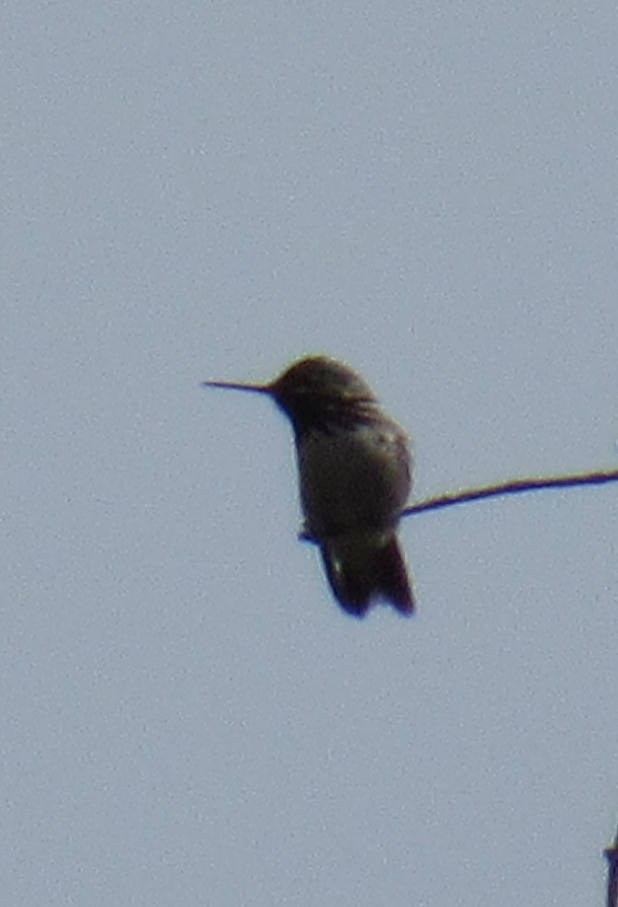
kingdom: Animalia
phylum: Chordata
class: Aves
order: Apodiformes
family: Trochilidae
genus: Selasphorus
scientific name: Selasphorus calliope
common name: Calliope hummingbird
